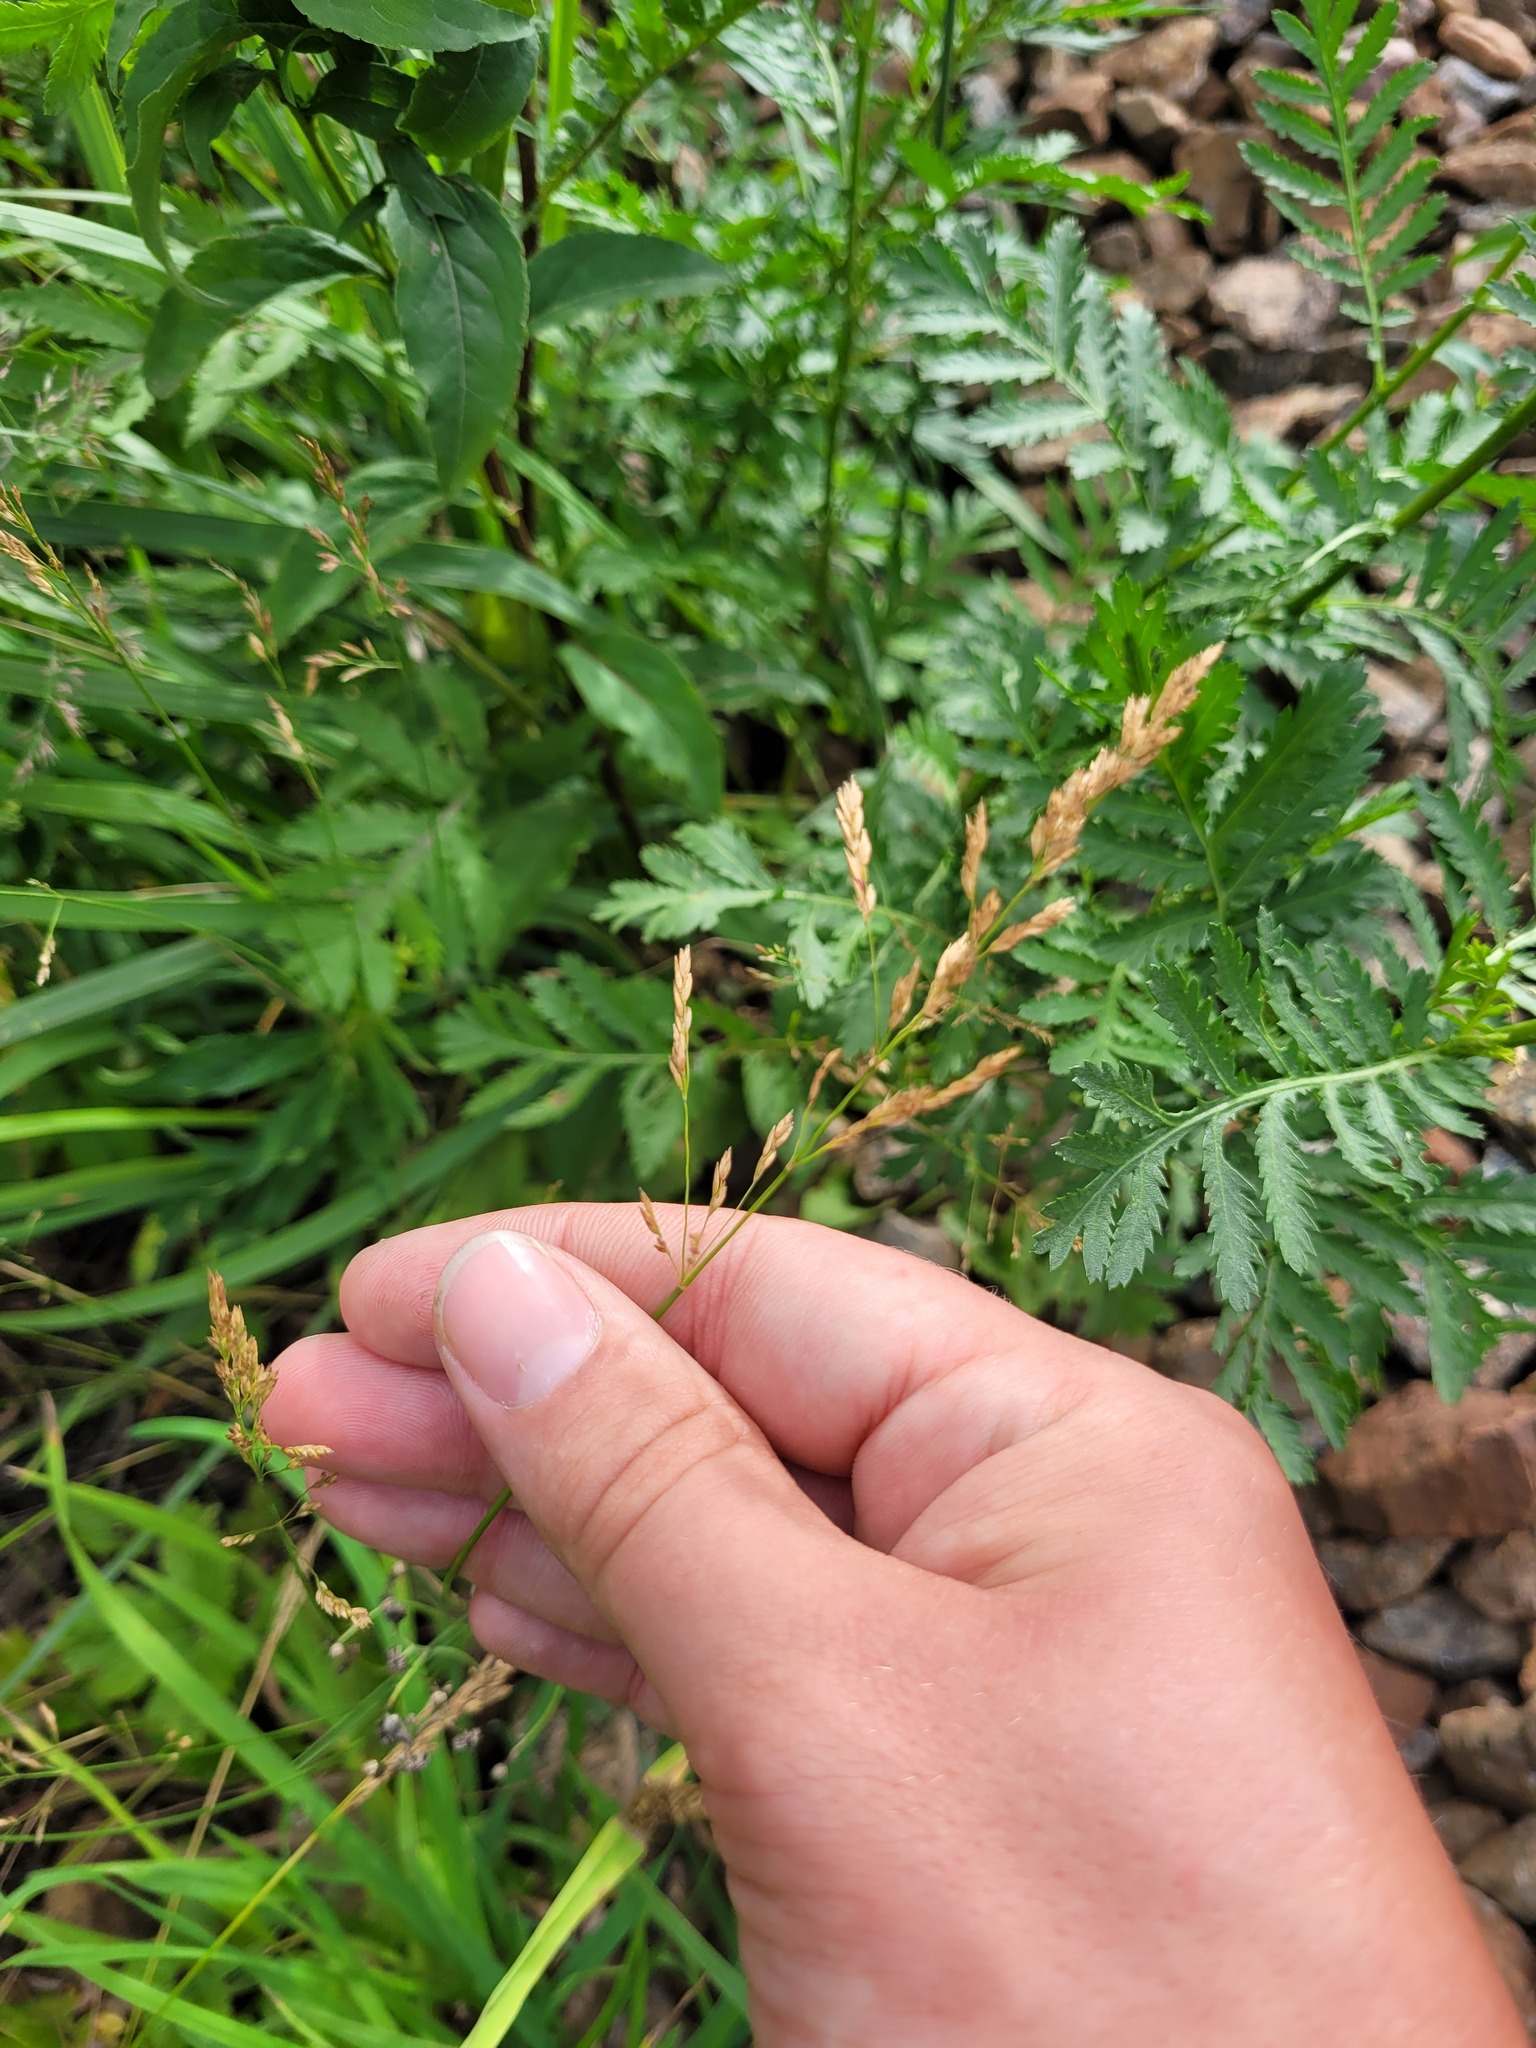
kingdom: Plantae
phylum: Tracheophyta
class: Liliopsida
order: Poales
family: Poaceae
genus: Poa
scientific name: Poa palustris
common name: Swamp meadow-grass
